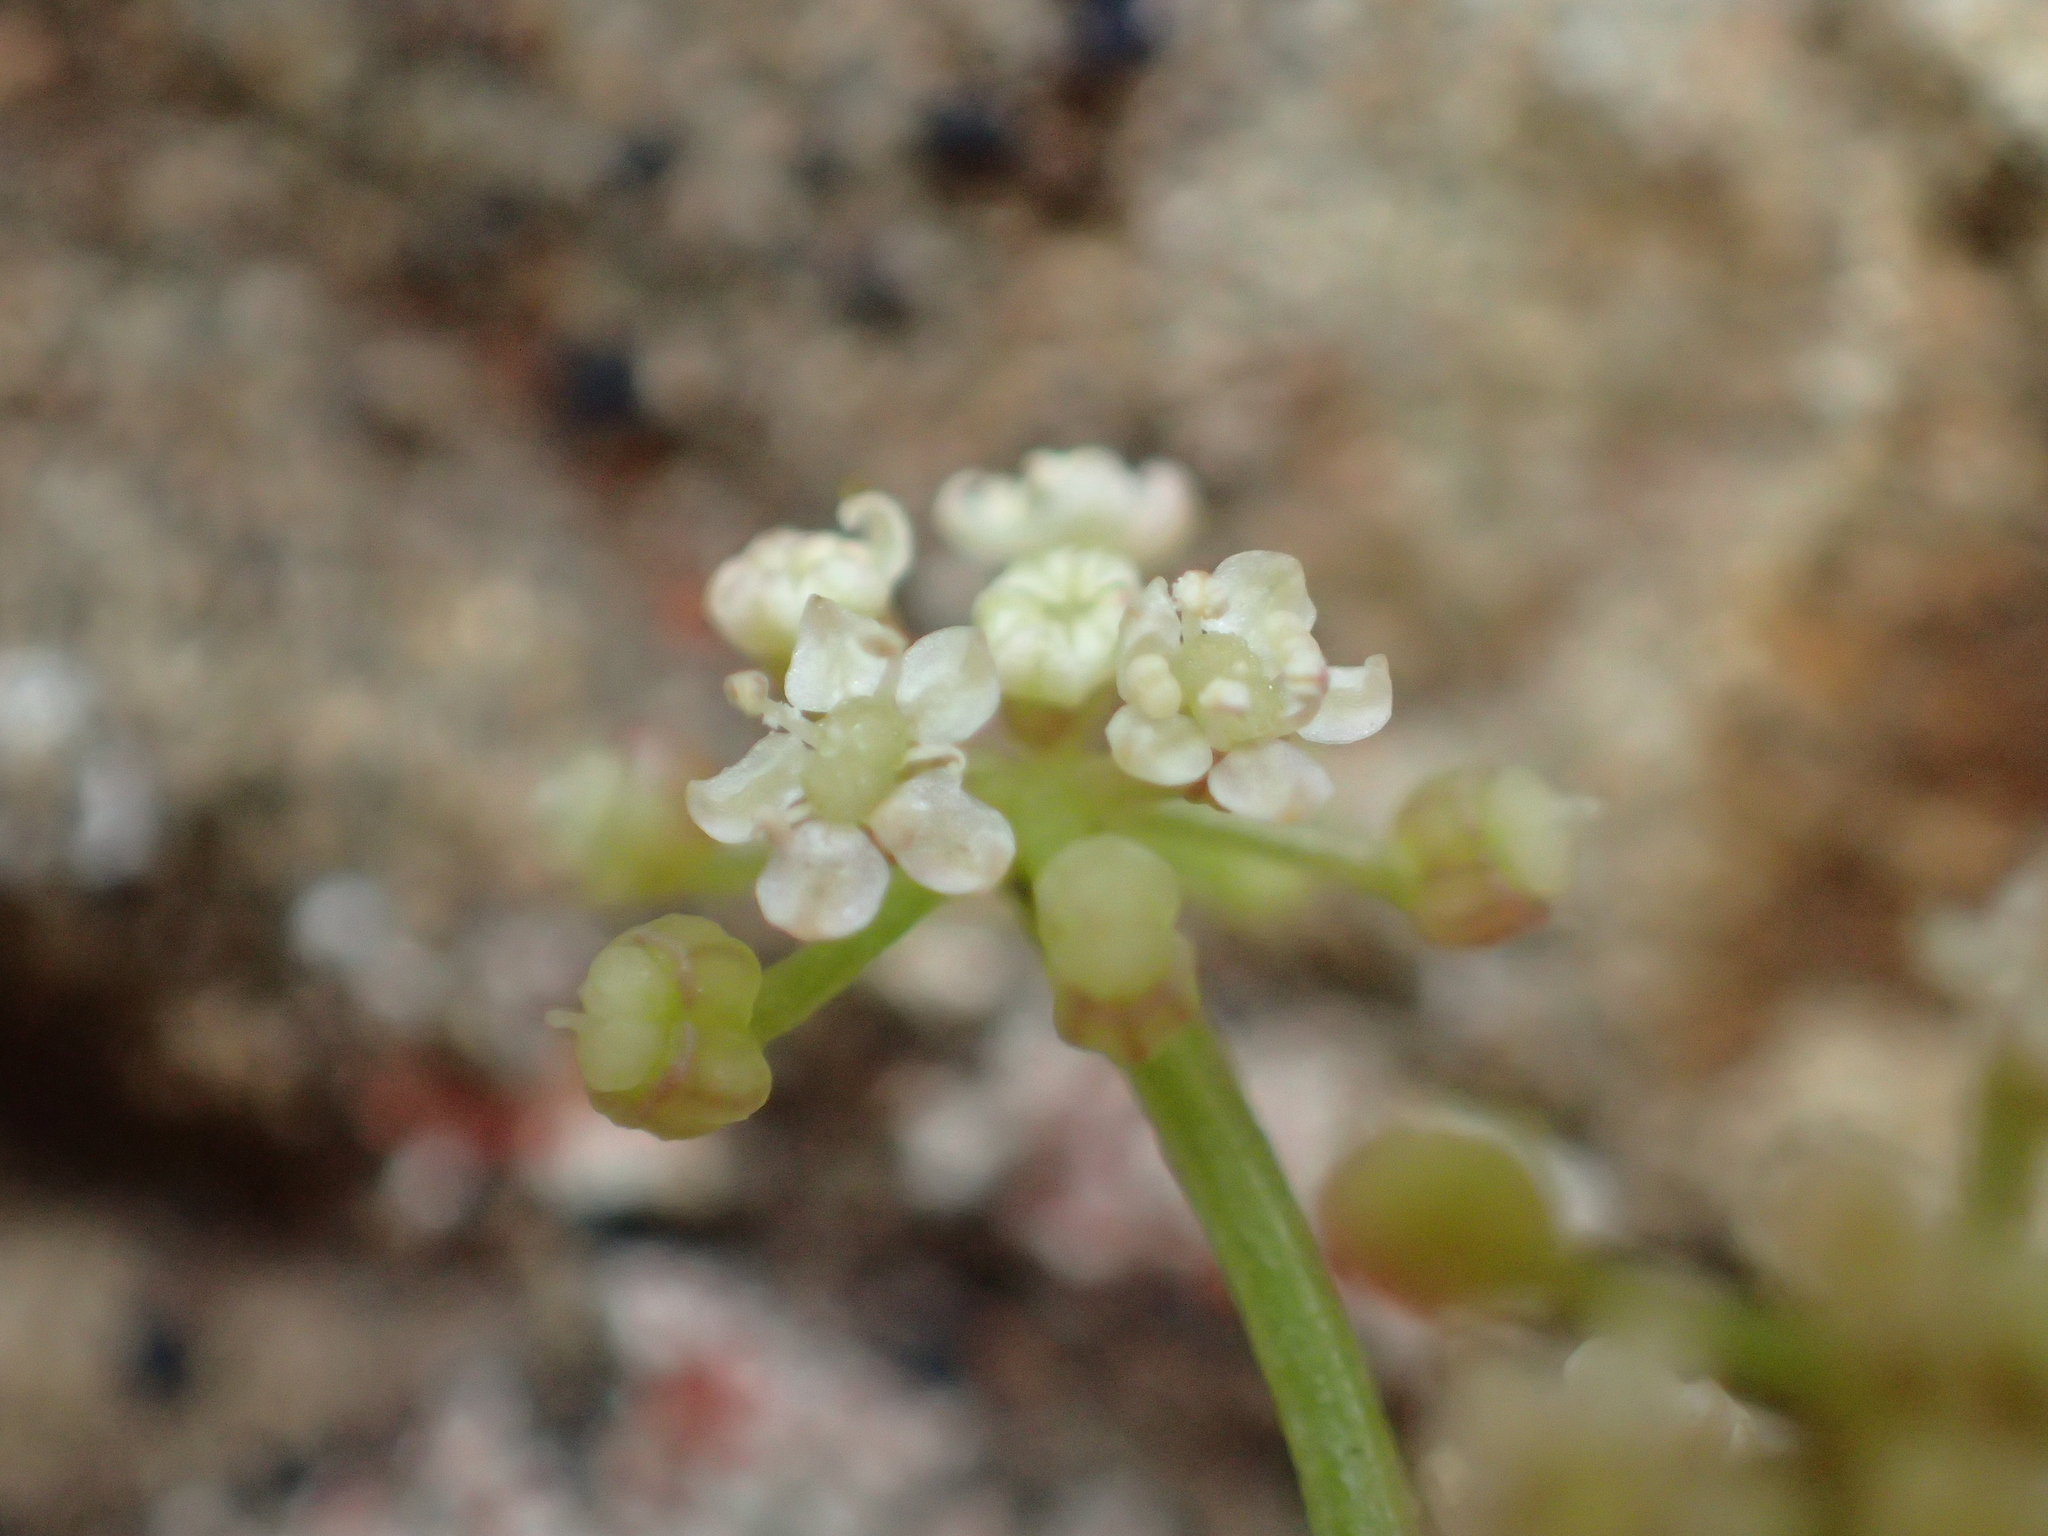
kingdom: Plantae
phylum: Tracheophyta
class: Magnoliopsida
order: Apiales
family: Apiaceae
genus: Apium
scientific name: Apium prostratum
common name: Prostrate marshwort
